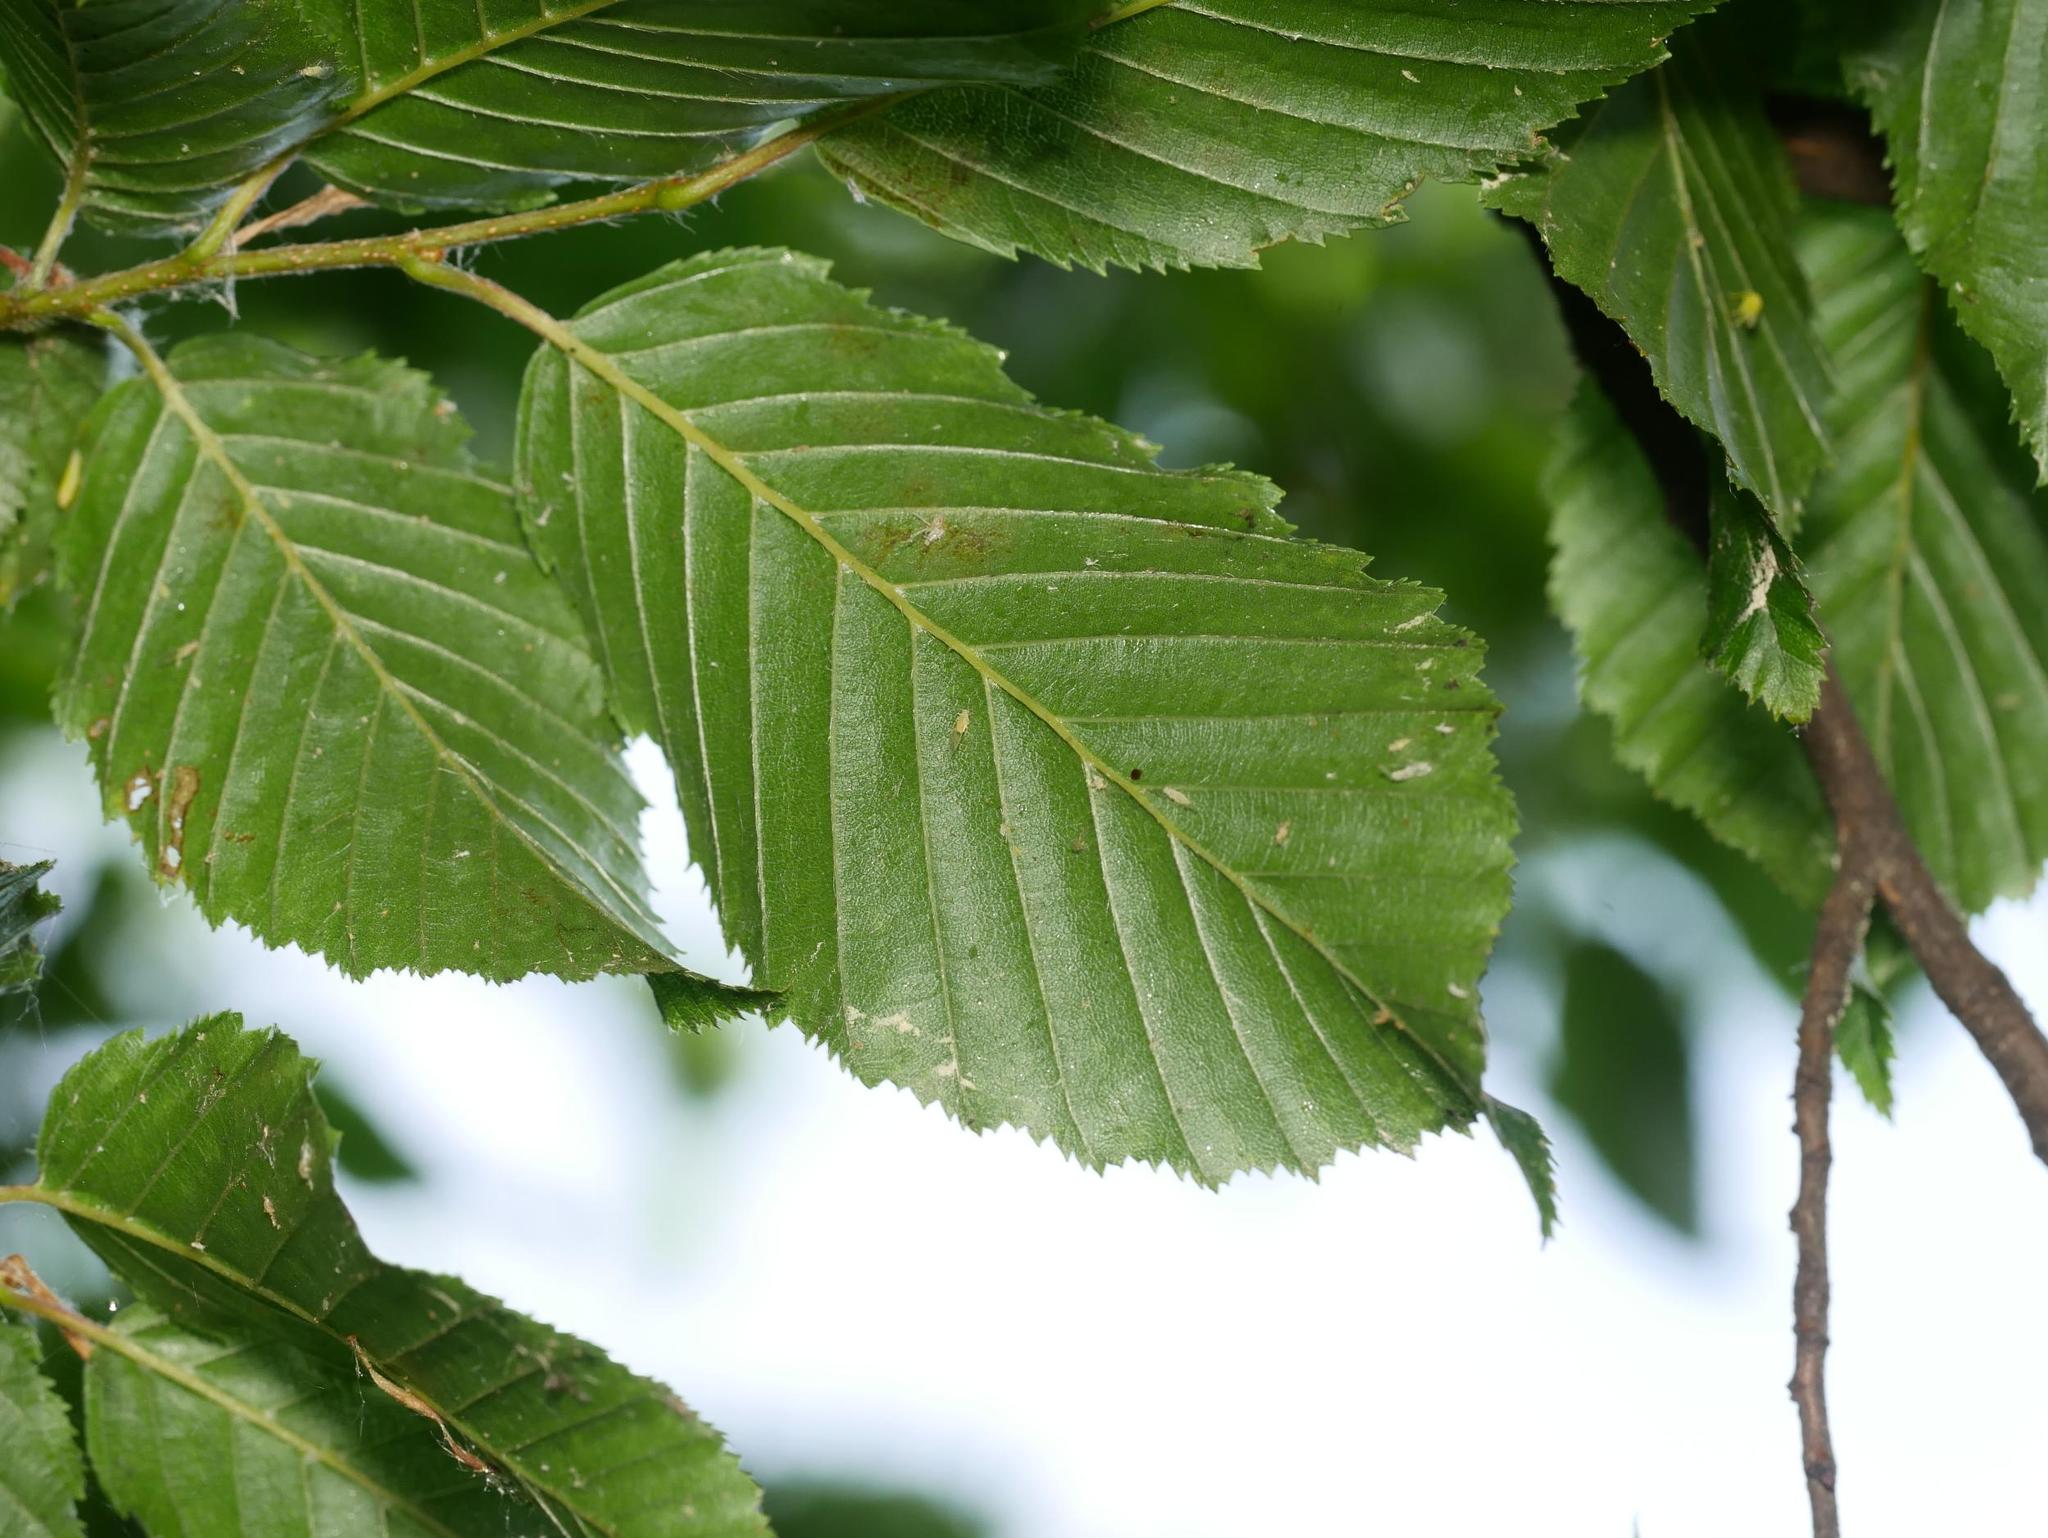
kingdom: Plantae
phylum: Tracheophyta
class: Magnoliopsida
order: Fagales
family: Betulaceae
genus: Carpinus
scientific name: Carpinus betulus
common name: Hornbeam
